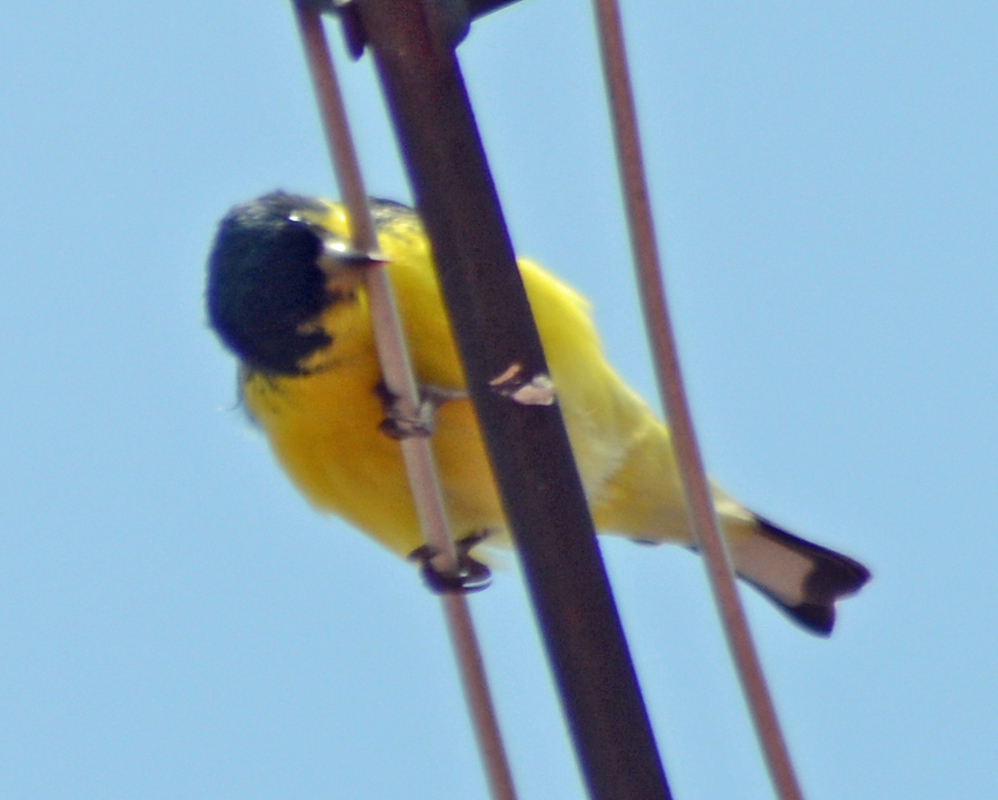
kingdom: Animalia
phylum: Chordata
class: Aves
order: Passeriformes
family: Fringillidae
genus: Spinus
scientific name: Spinus psaltria
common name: Lesser goldfinch
